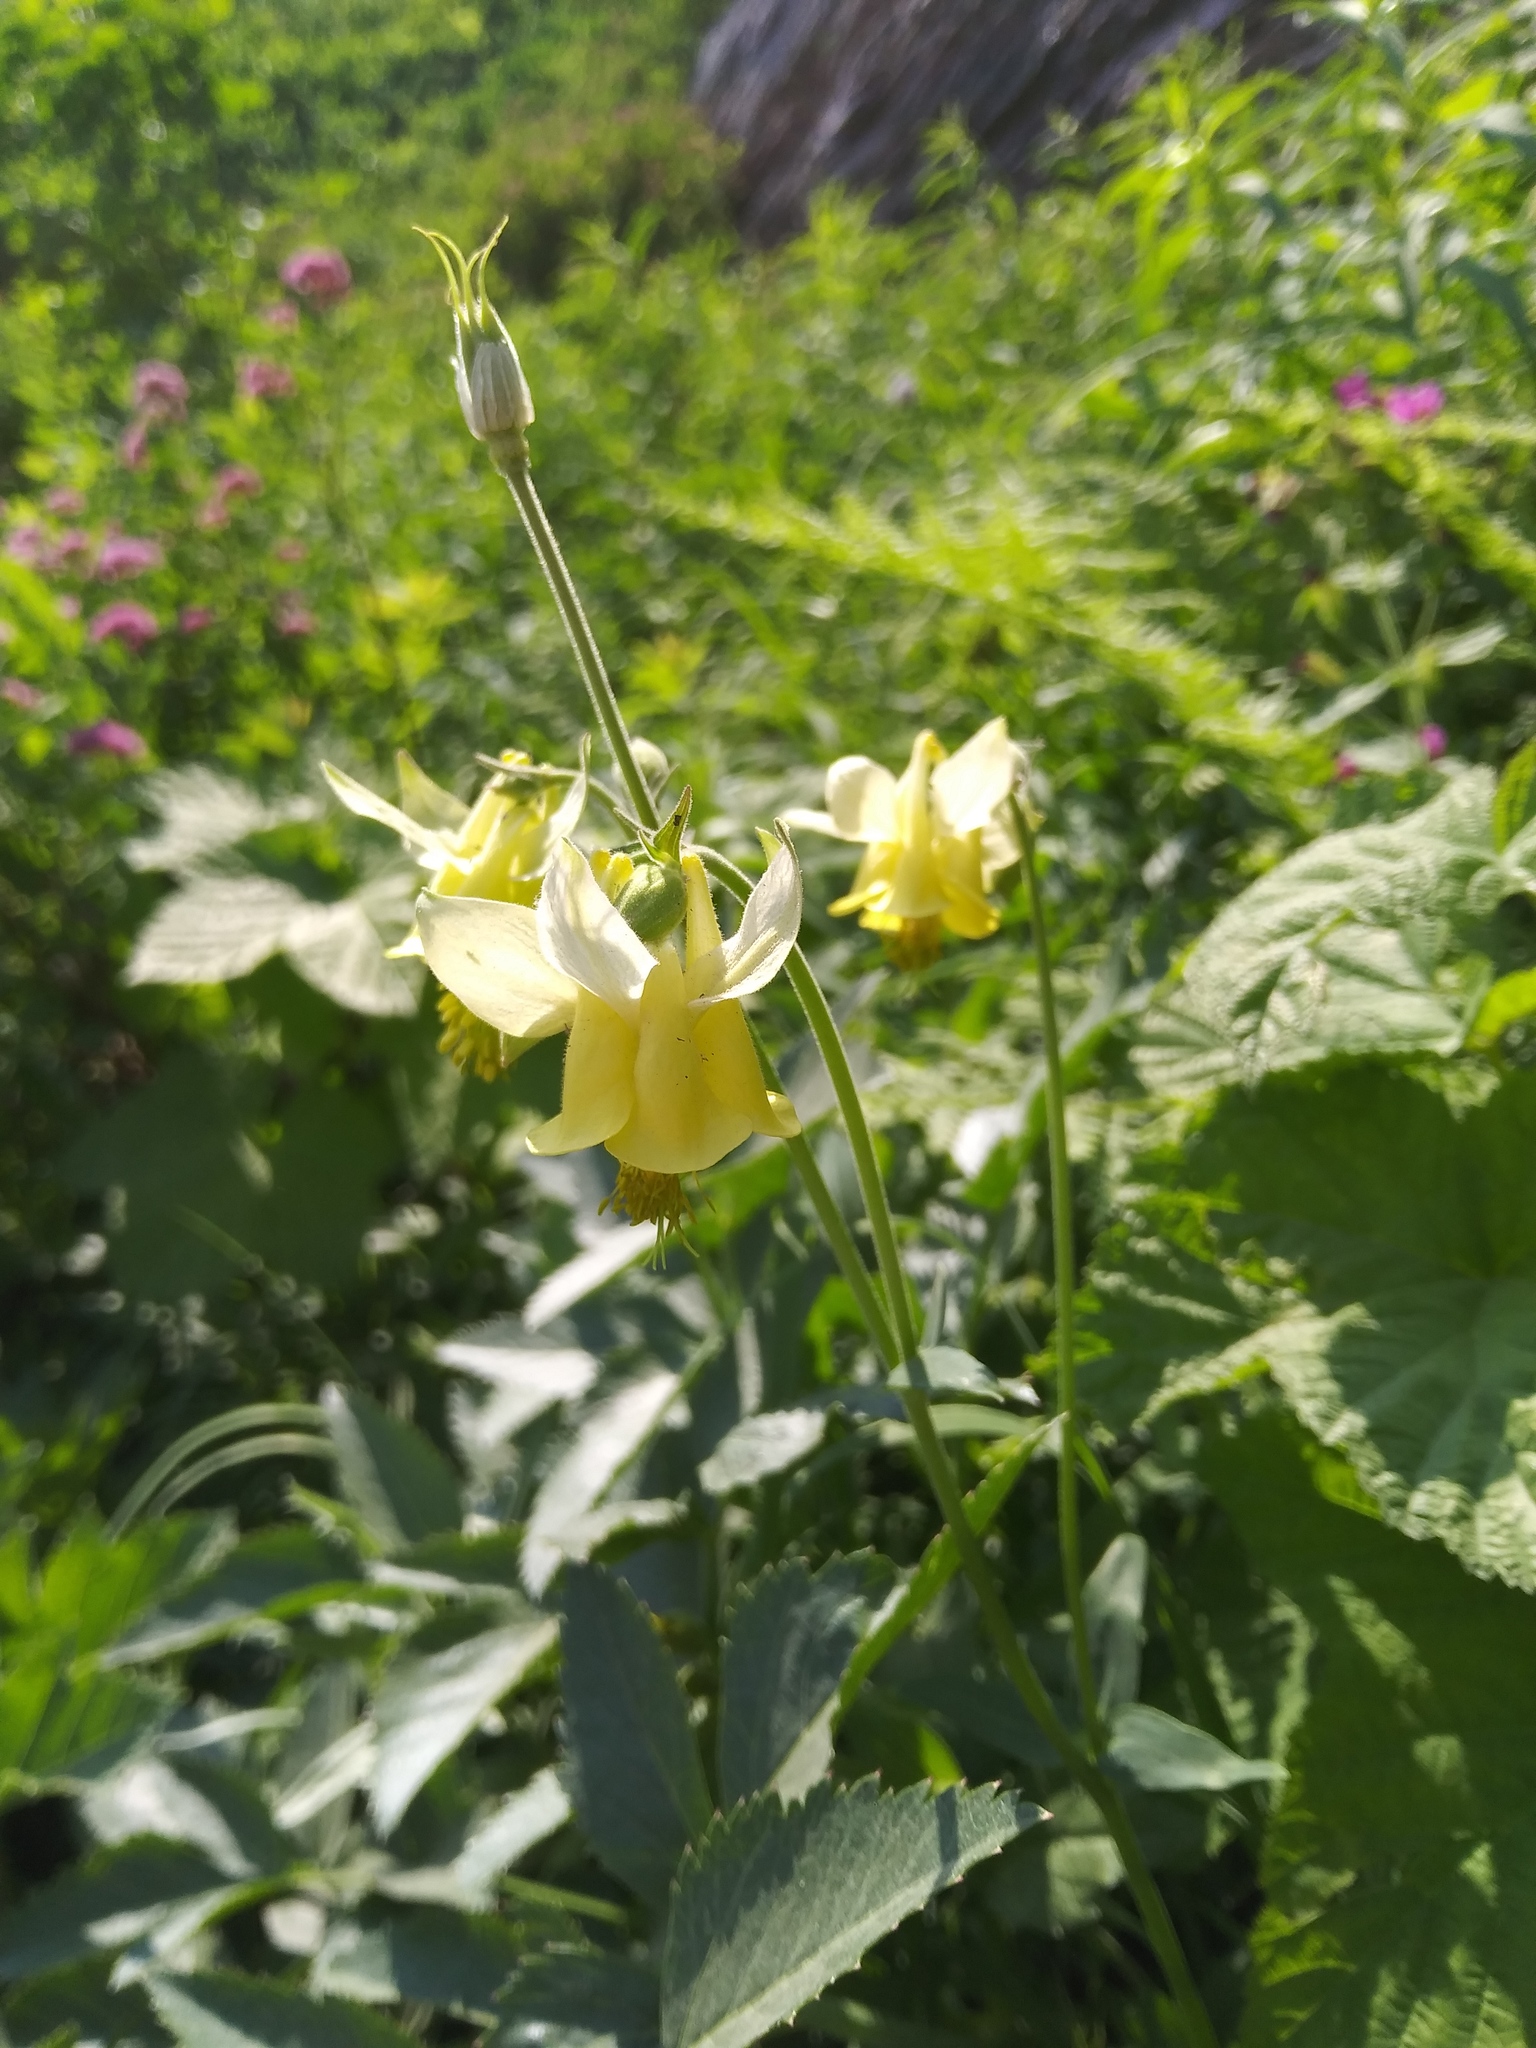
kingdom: Plantae
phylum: Tracheophyta
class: Magnoliopsida
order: Ranunculales
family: Ranunculaceae
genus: Aquilegia
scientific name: Aquilegia flavescens
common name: Yellow columbine
